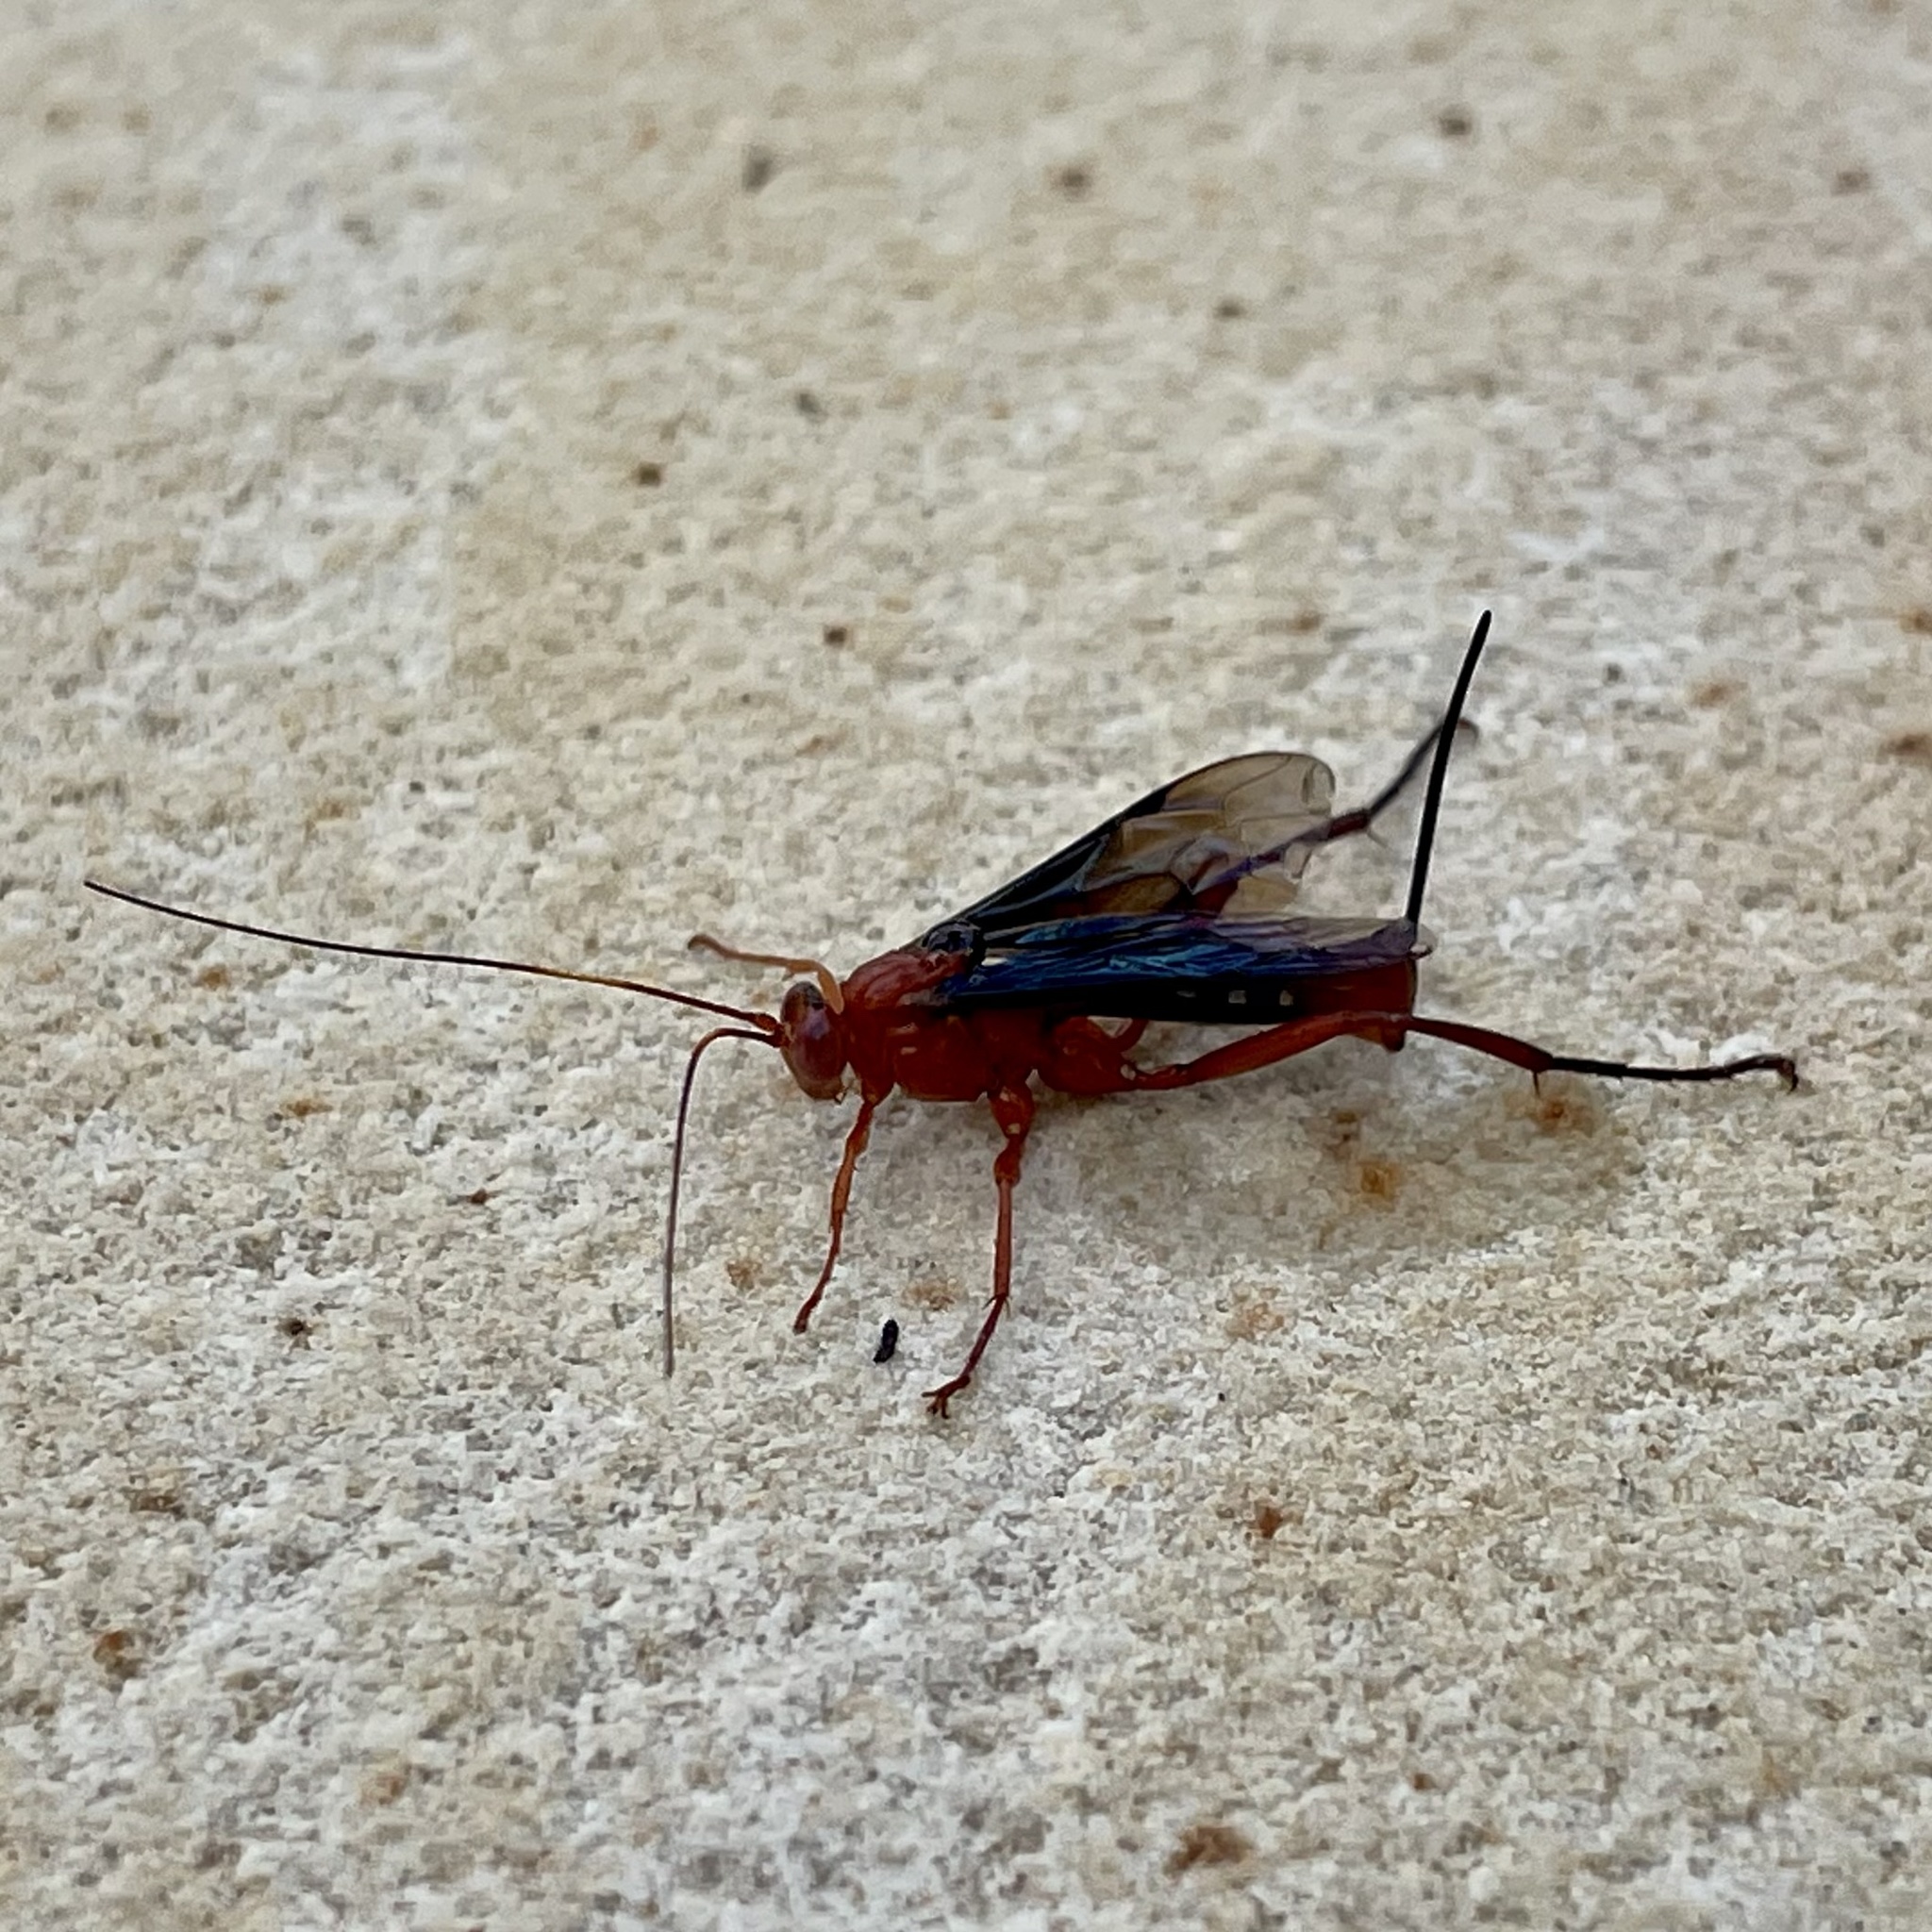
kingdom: Animalia
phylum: Arthropoda
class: Insecta
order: Hymenoptera
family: Ichneumonidae
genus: Lissopimpla
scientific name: Lissopimpla excelsa
